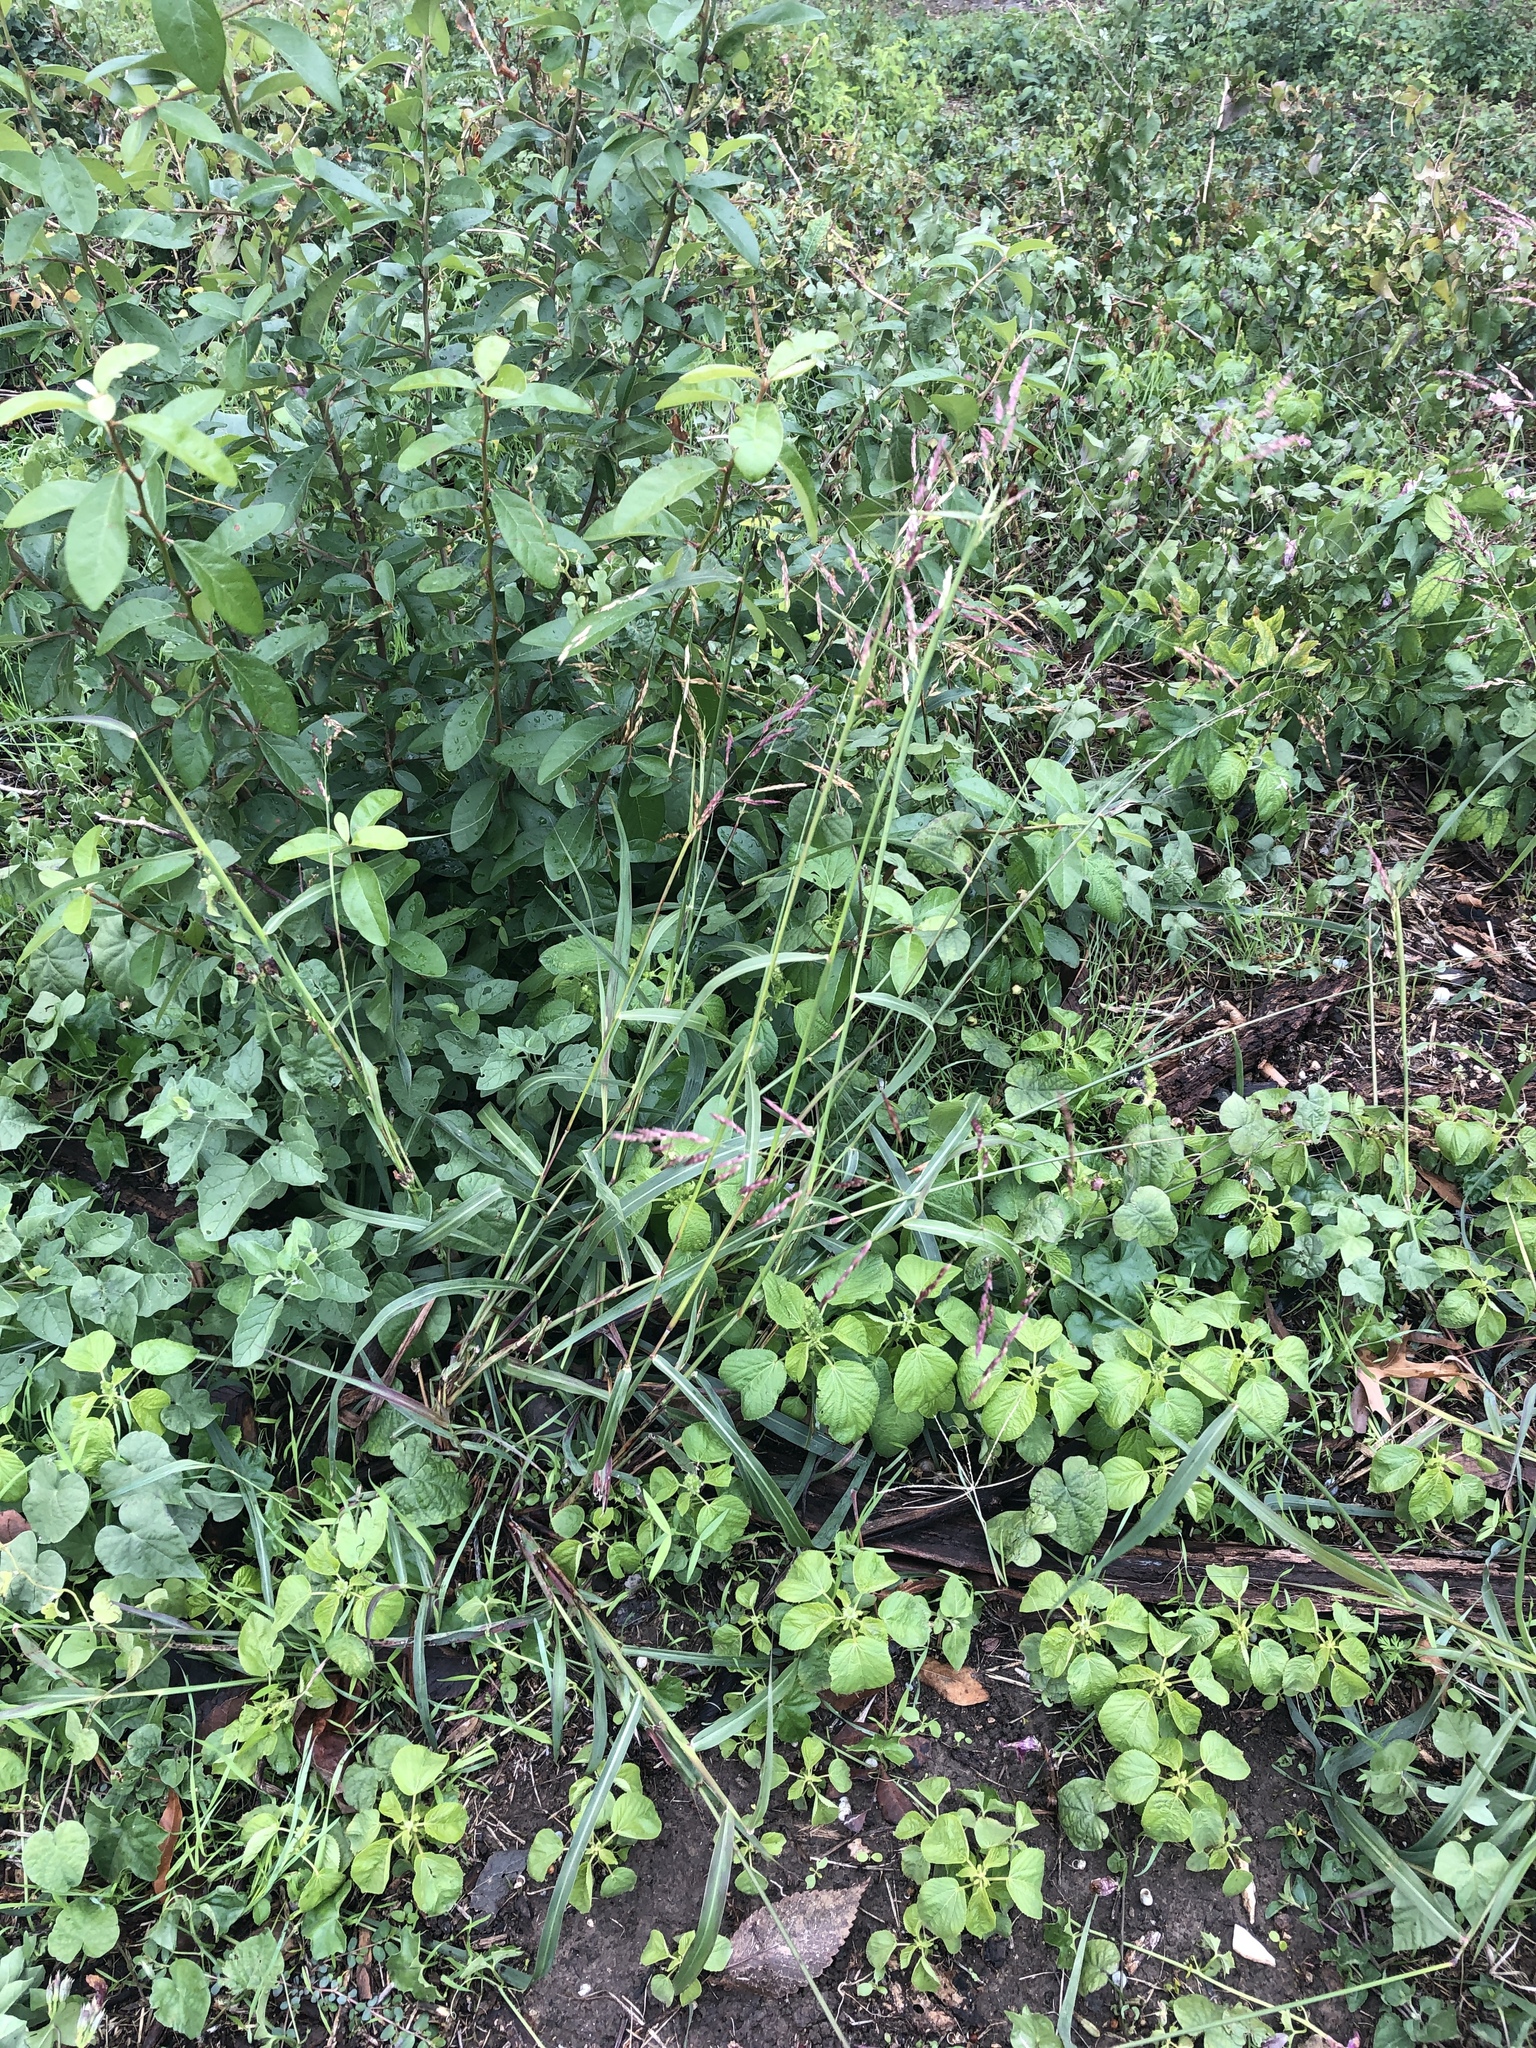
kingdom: Plantae
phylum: Tracheophyta
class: Liliopsida
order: Poales
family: Poaceae
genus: Sorghum
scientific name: Sorghum halepense
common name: Johnson-grass
